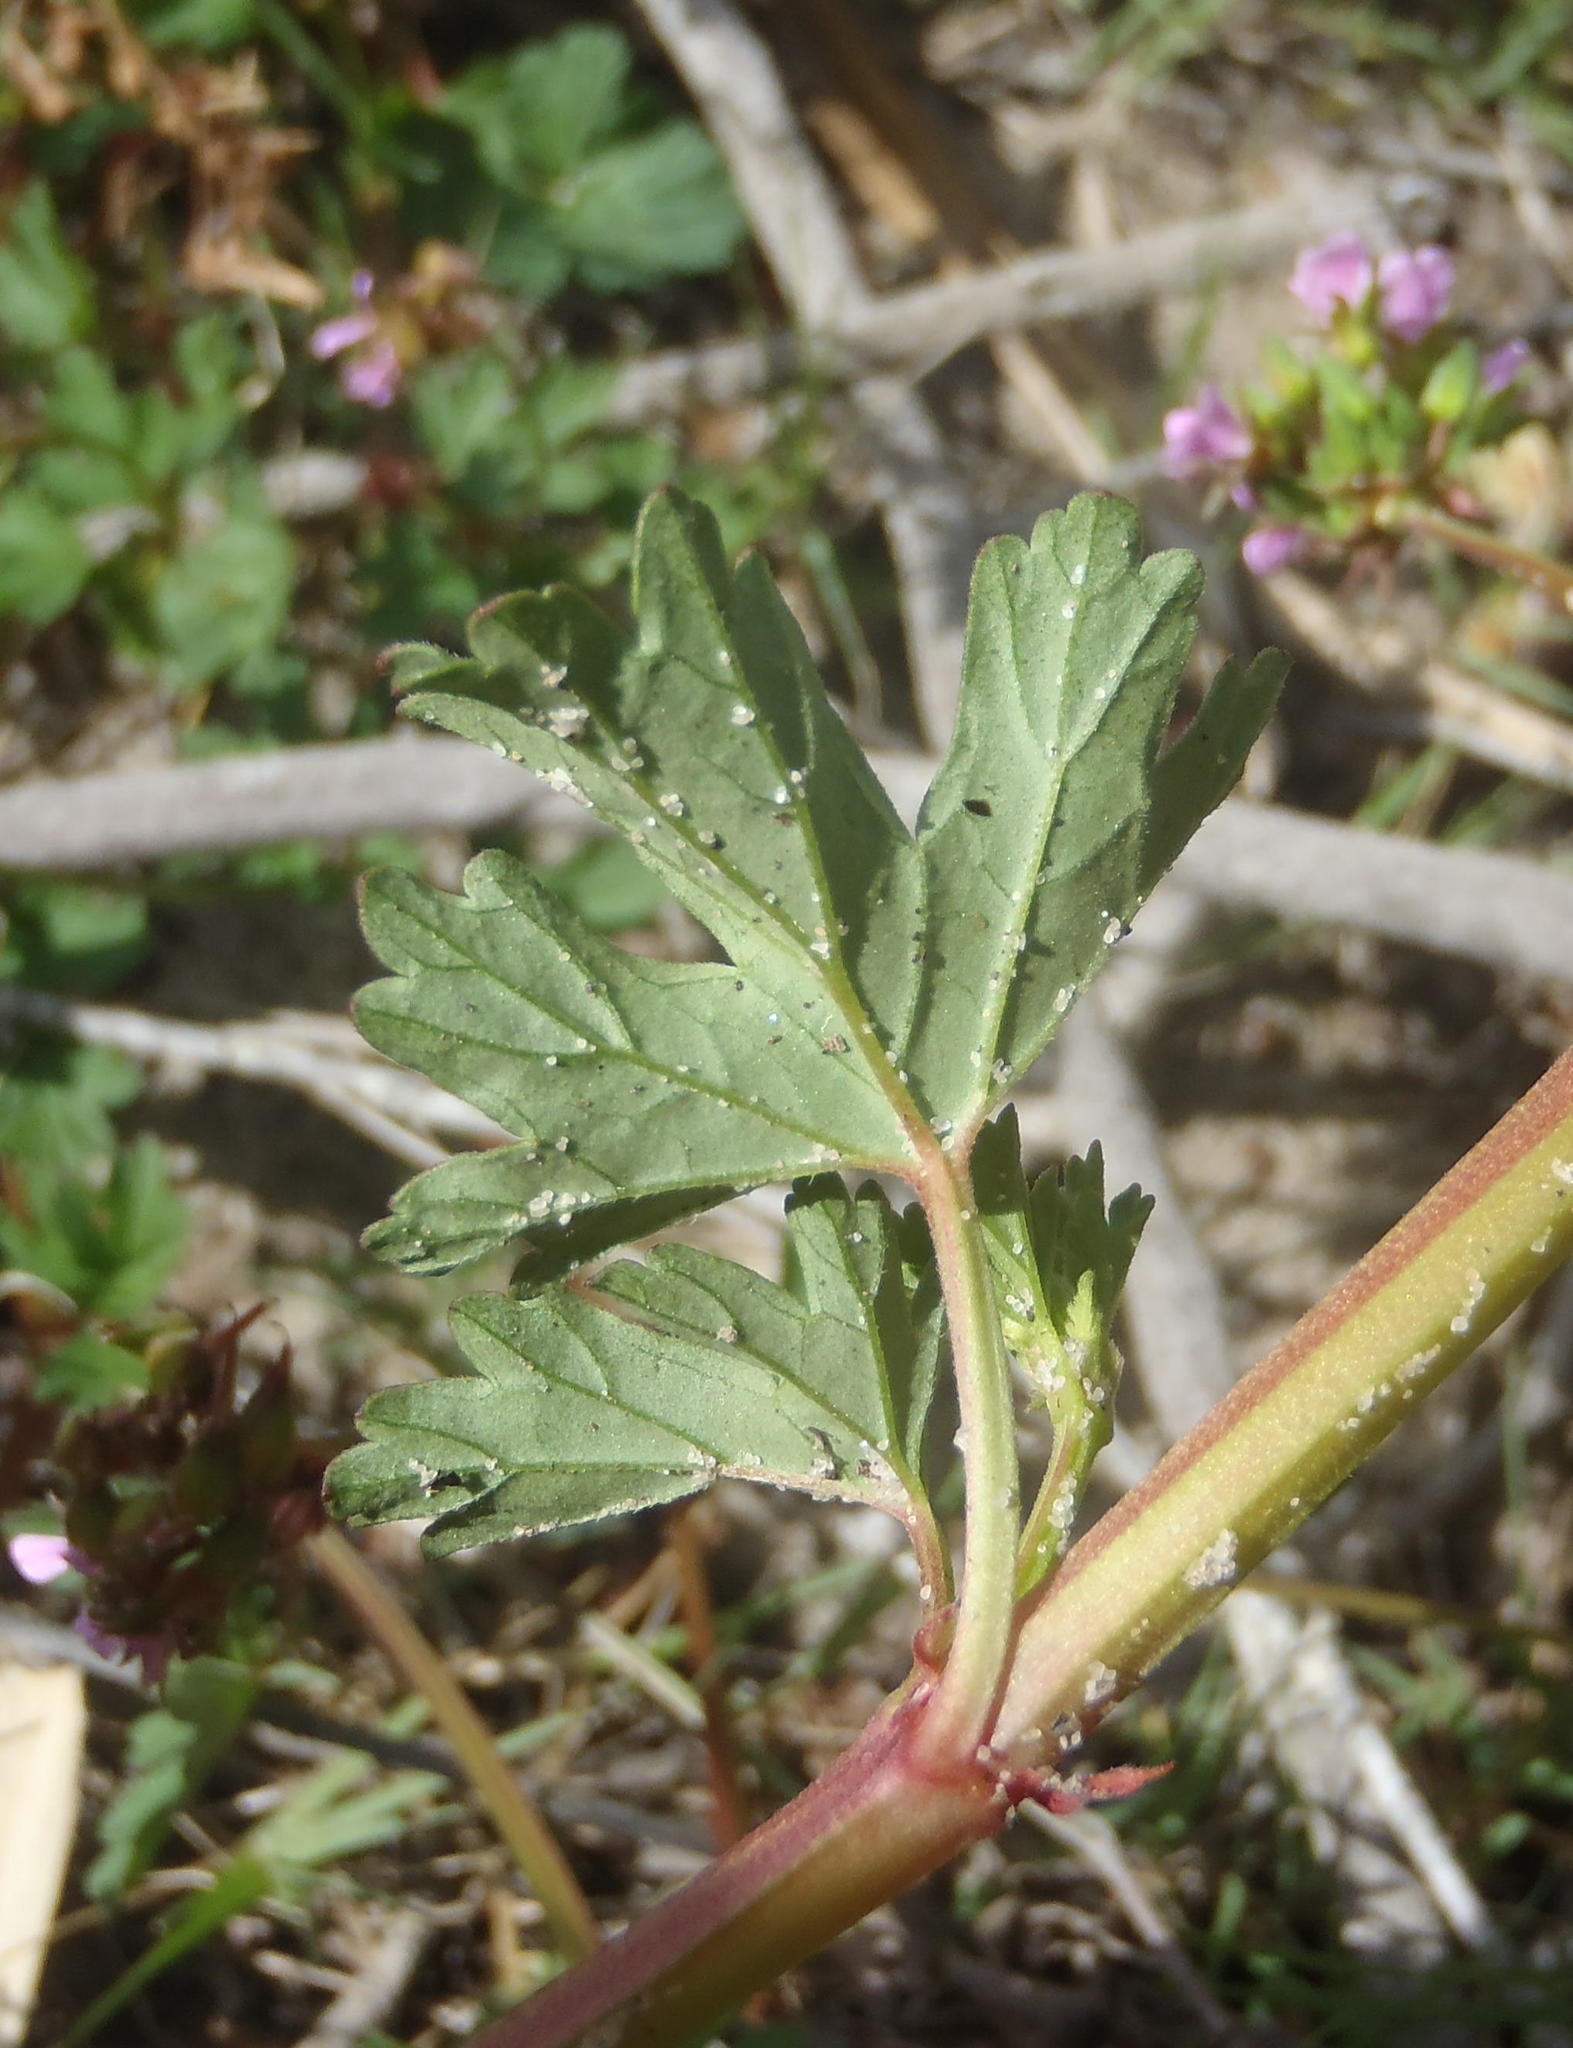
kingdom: Plantae
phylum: Tracheophyta
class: Magnoliopsida
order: Geraniales
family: Geraniaceae
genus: Pelargonium
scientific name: Pelargonium grossularioides
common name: Gooseberry geranium
